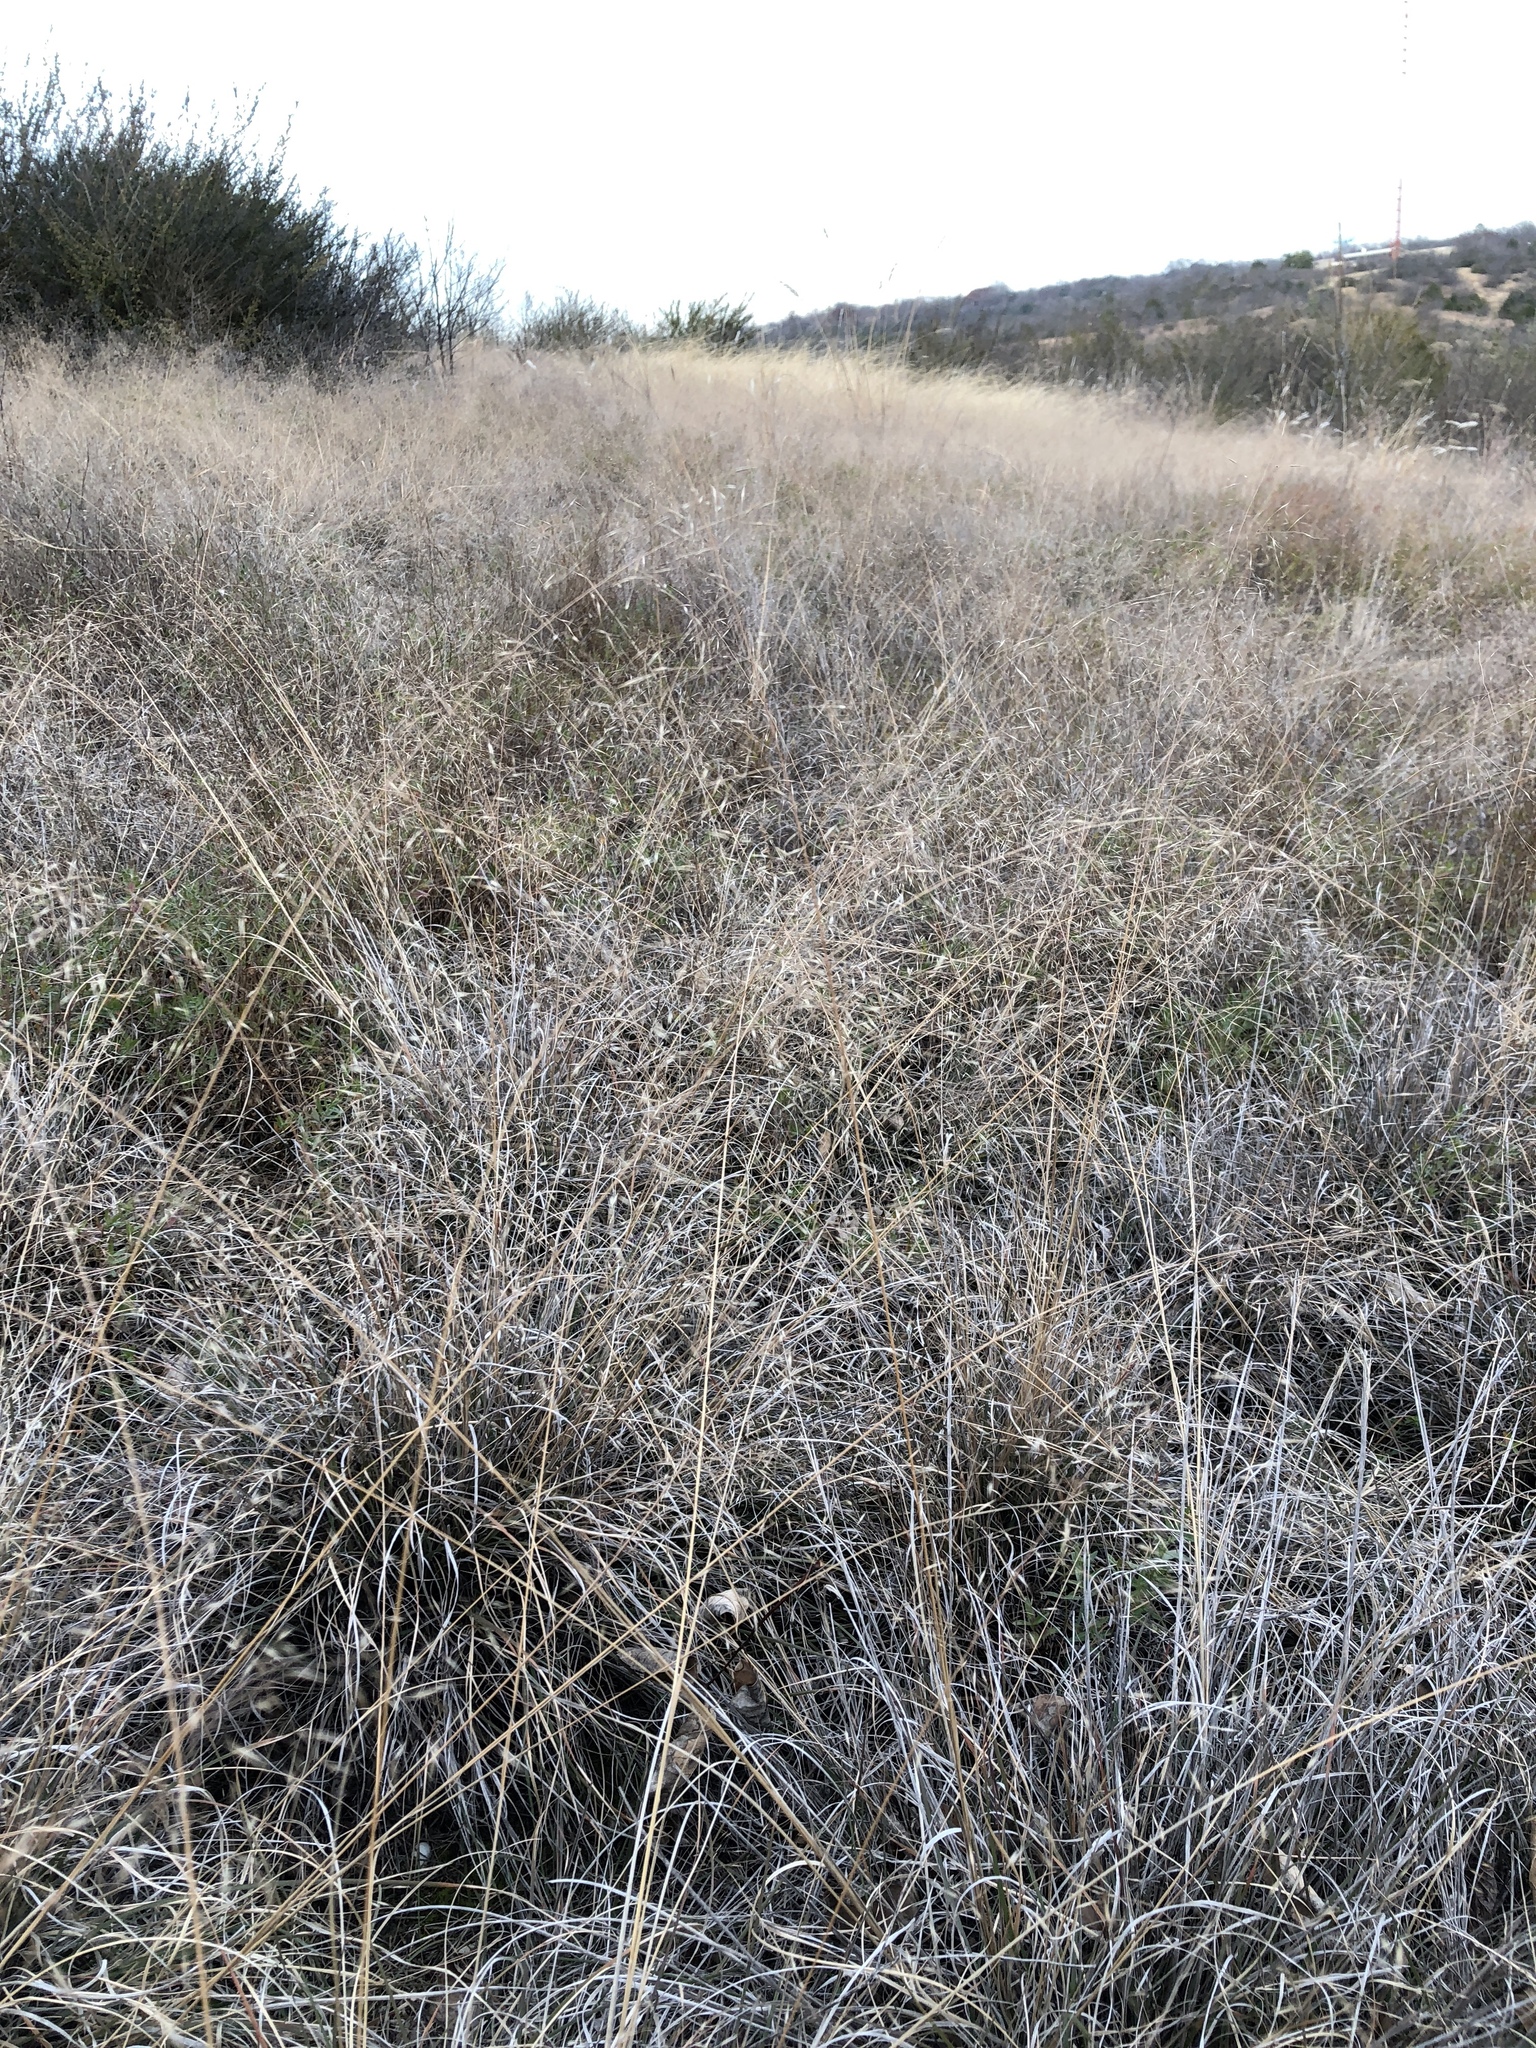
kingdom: Plantae
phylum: Tracheophyta
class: Liliopsida
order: Poales
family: Poaceae
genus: Muhlenbergia
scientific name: Muhlenbergia reverchonii
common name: Seep muhly
